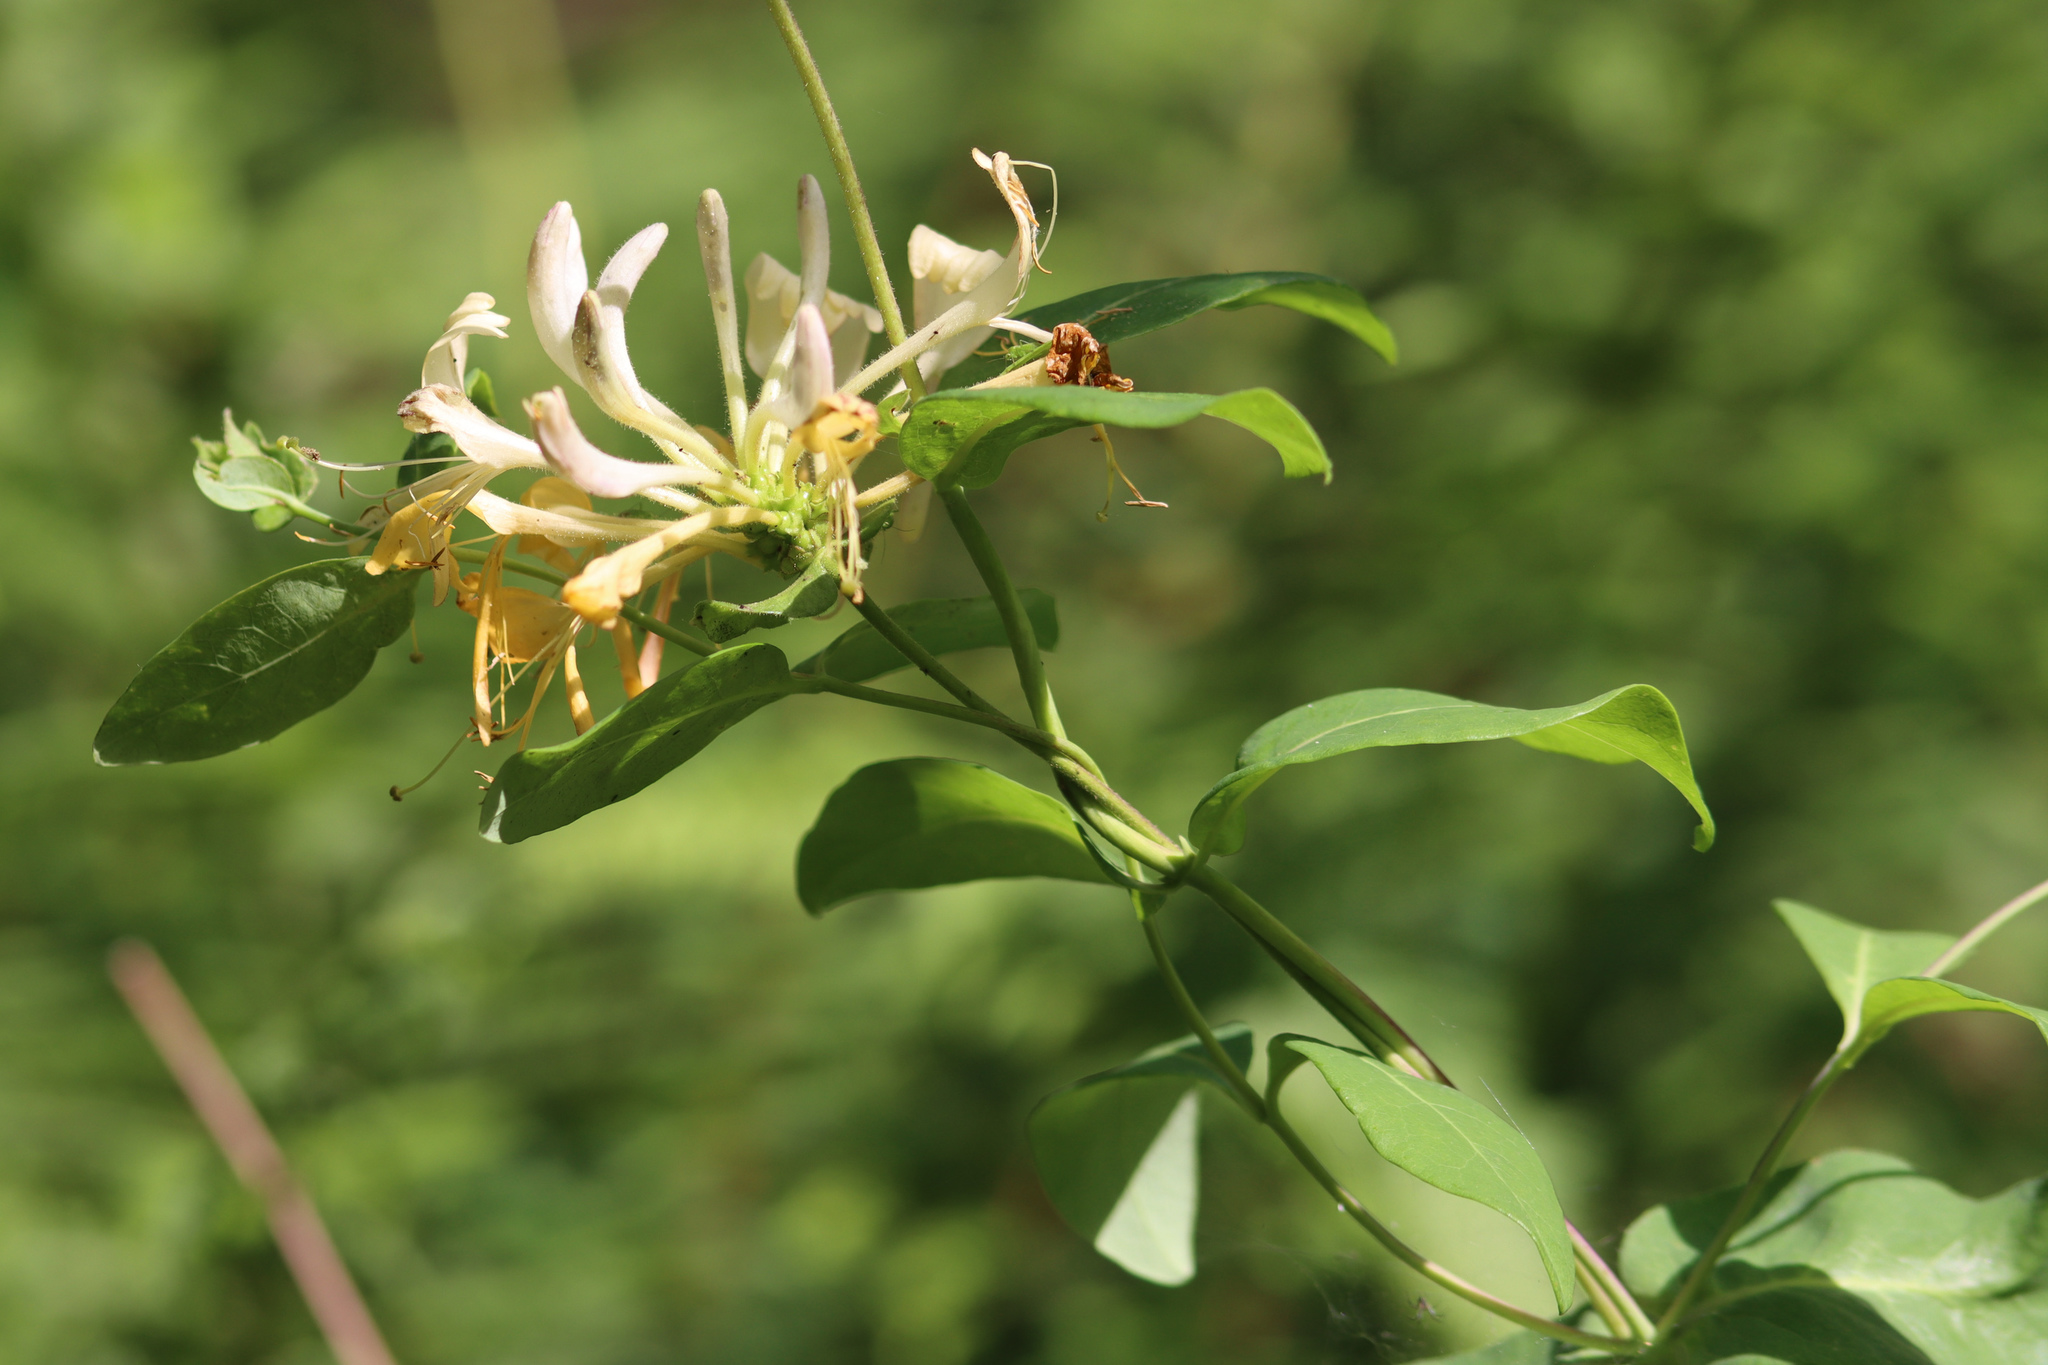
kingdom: Plantae
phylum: Tracheophyta
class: Magnoliopsida
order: Dipsacales
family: Caprifoliaceae
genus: Lonicera
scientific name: Lonicera periclymenum
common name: European honeysuckle
